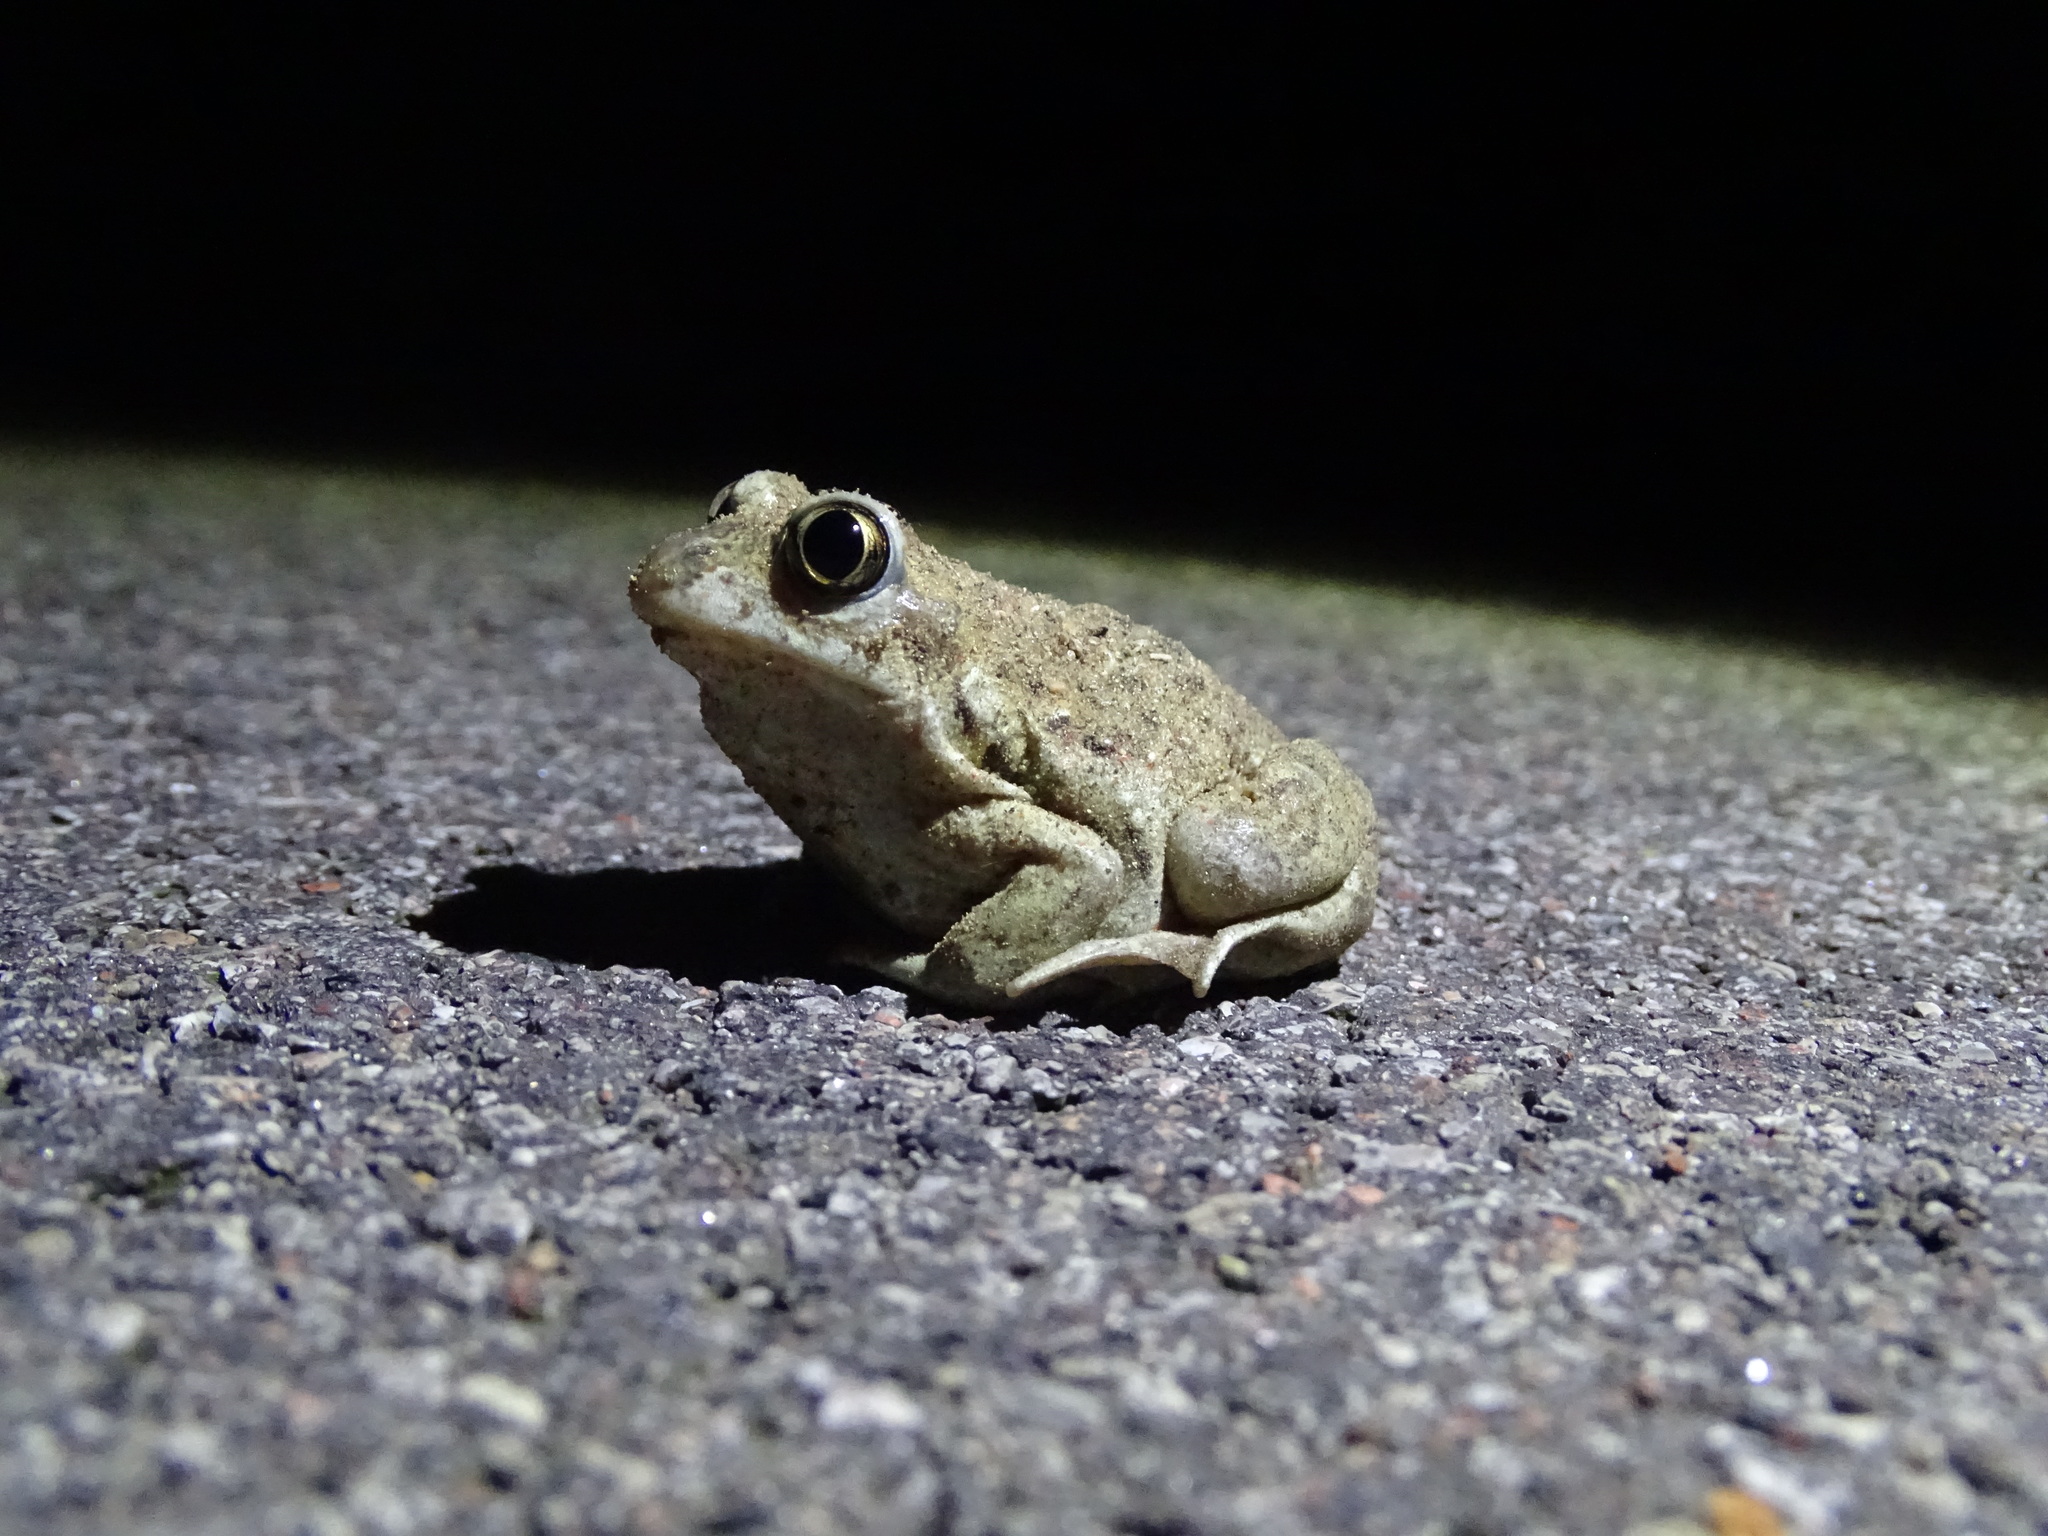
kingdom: Animalia
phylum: Chordata
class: Amphibia
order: Anura
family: Pelobatidae
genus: Pelobates
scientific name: Pelobates fuscus
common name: Common eurasian spadefoot toad
